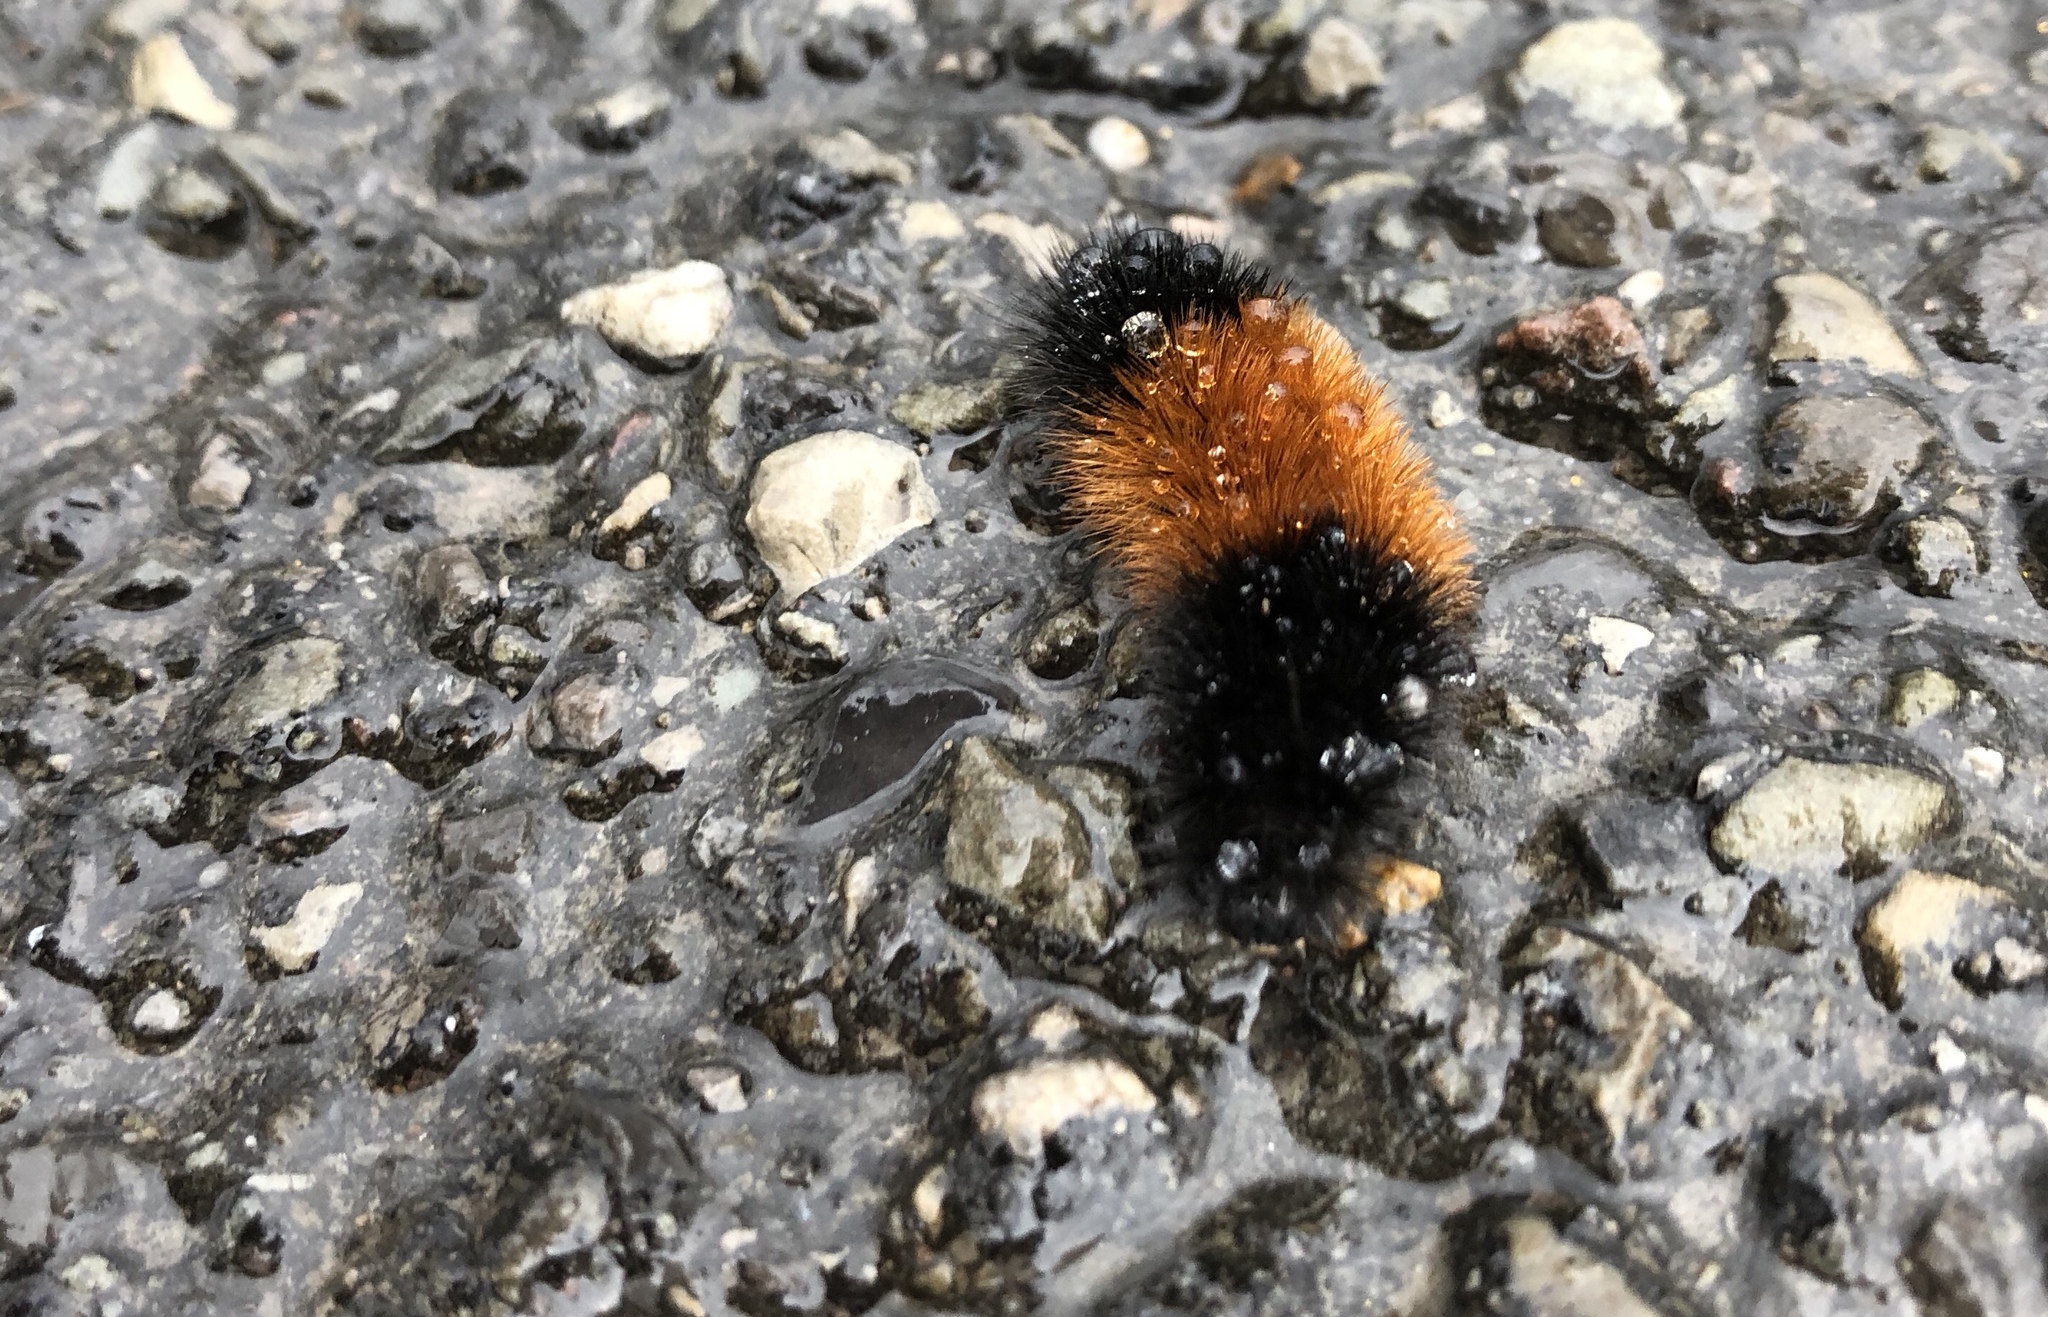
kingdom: Animalia
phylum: Arthropoda
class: Insecta
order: Lepidoptera
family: Erebidae
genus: Pyrrharctia
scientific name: Pyrrharctia isabella
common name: Isabella tiger moth
